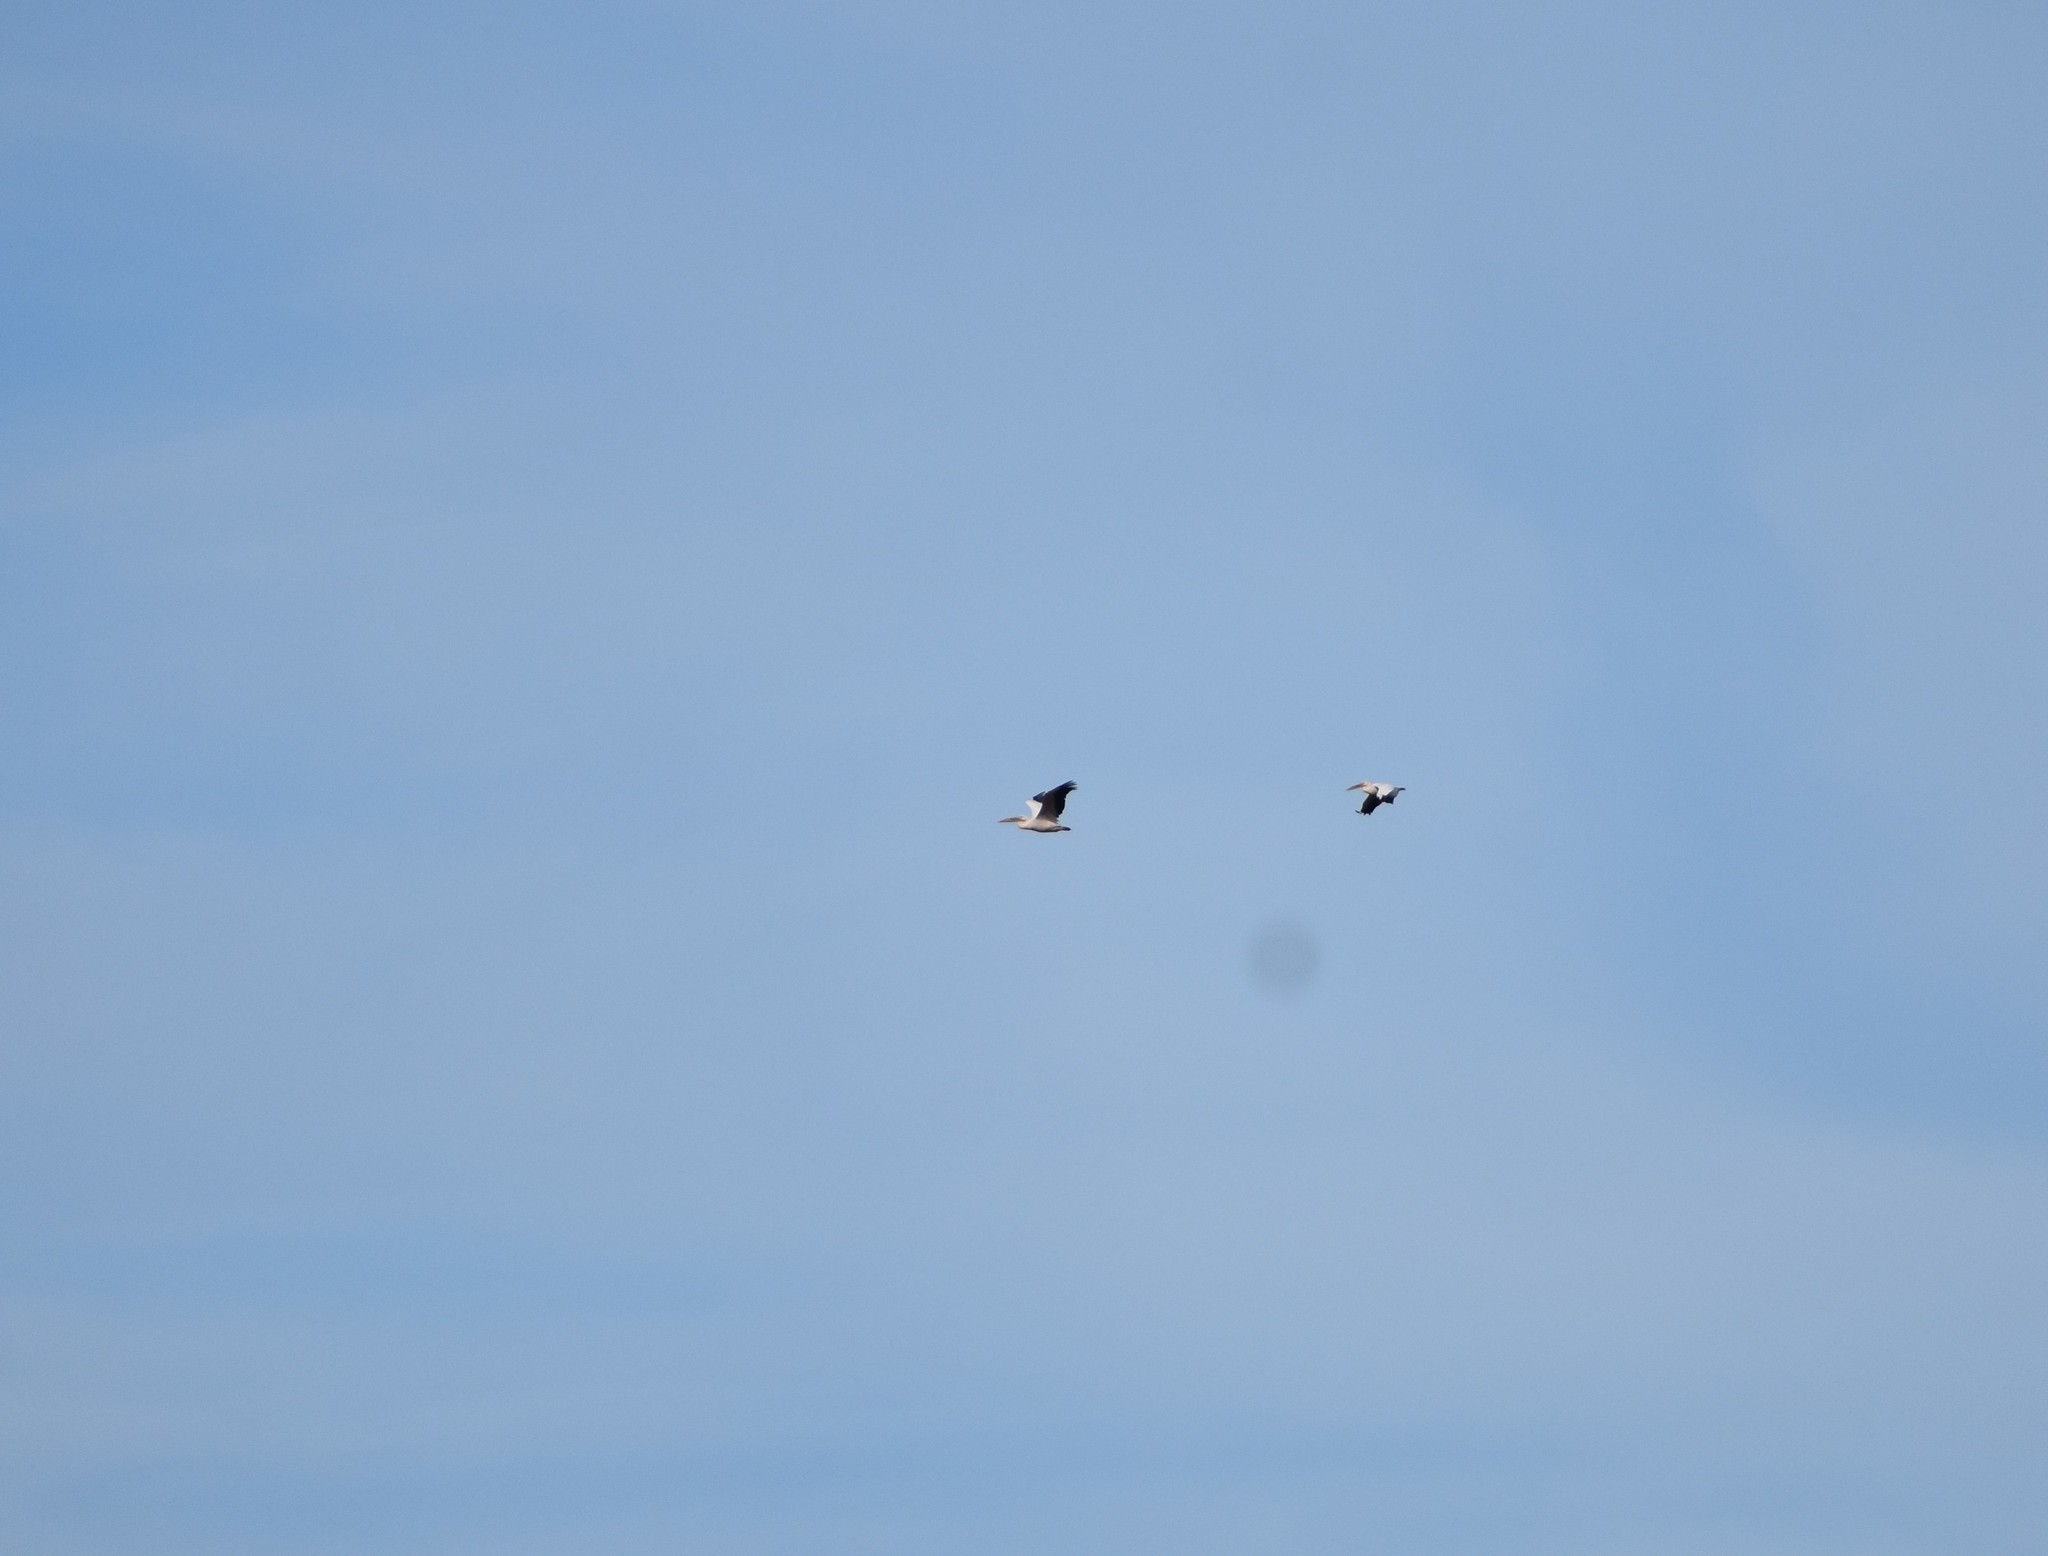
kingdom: Animalia
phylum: Chordata
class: Aves
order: Pelecaniformes
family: Pelecanidae
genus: Pelecanus
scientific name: Pelecanus onocrotalus
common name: Great white pelican
